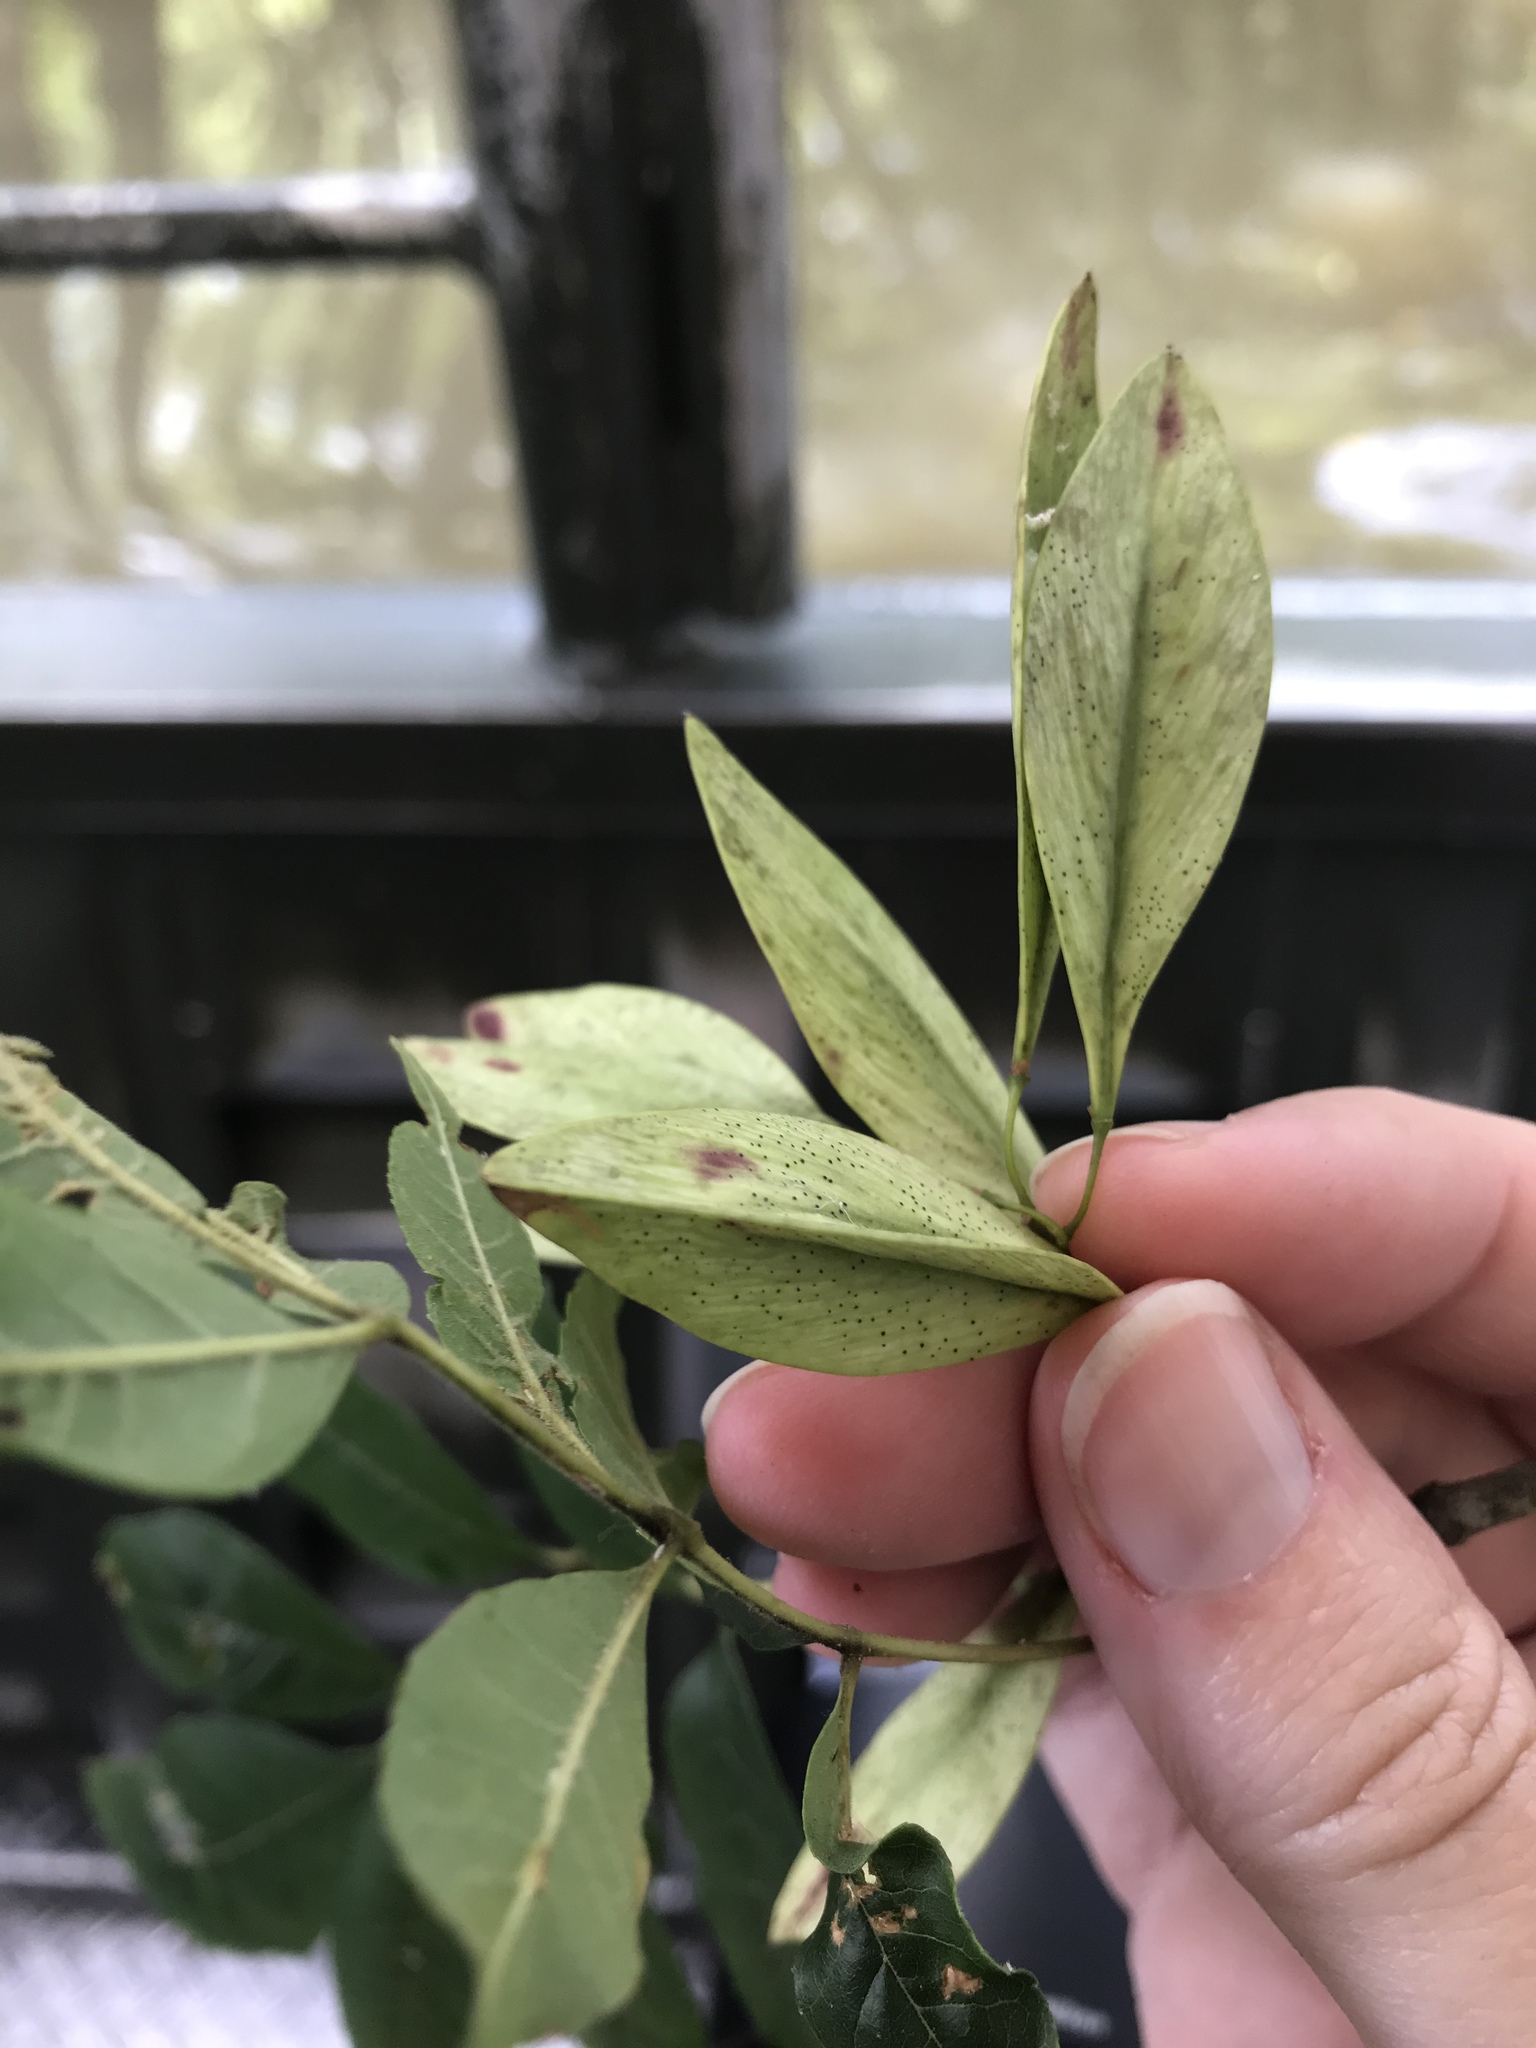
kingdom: Plantae
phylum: Tracheophyta
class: Magnoliopsida
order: Lamiales
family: Oleaceae
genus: Fraxinus
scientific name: Fraxinus caroliniana
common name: Carolina ash
